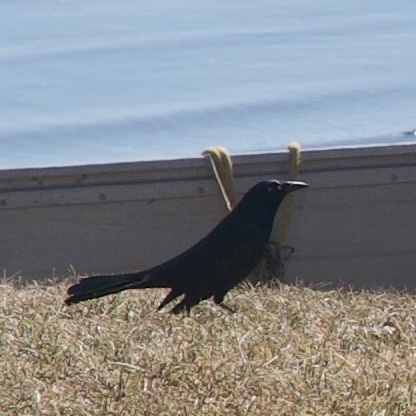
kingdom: Animalia
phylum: Chordata
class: Aves
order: Passeriformes
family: Icteridae
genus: Quiscalus
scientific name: Quiscalus quiscula
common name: Common grackle
